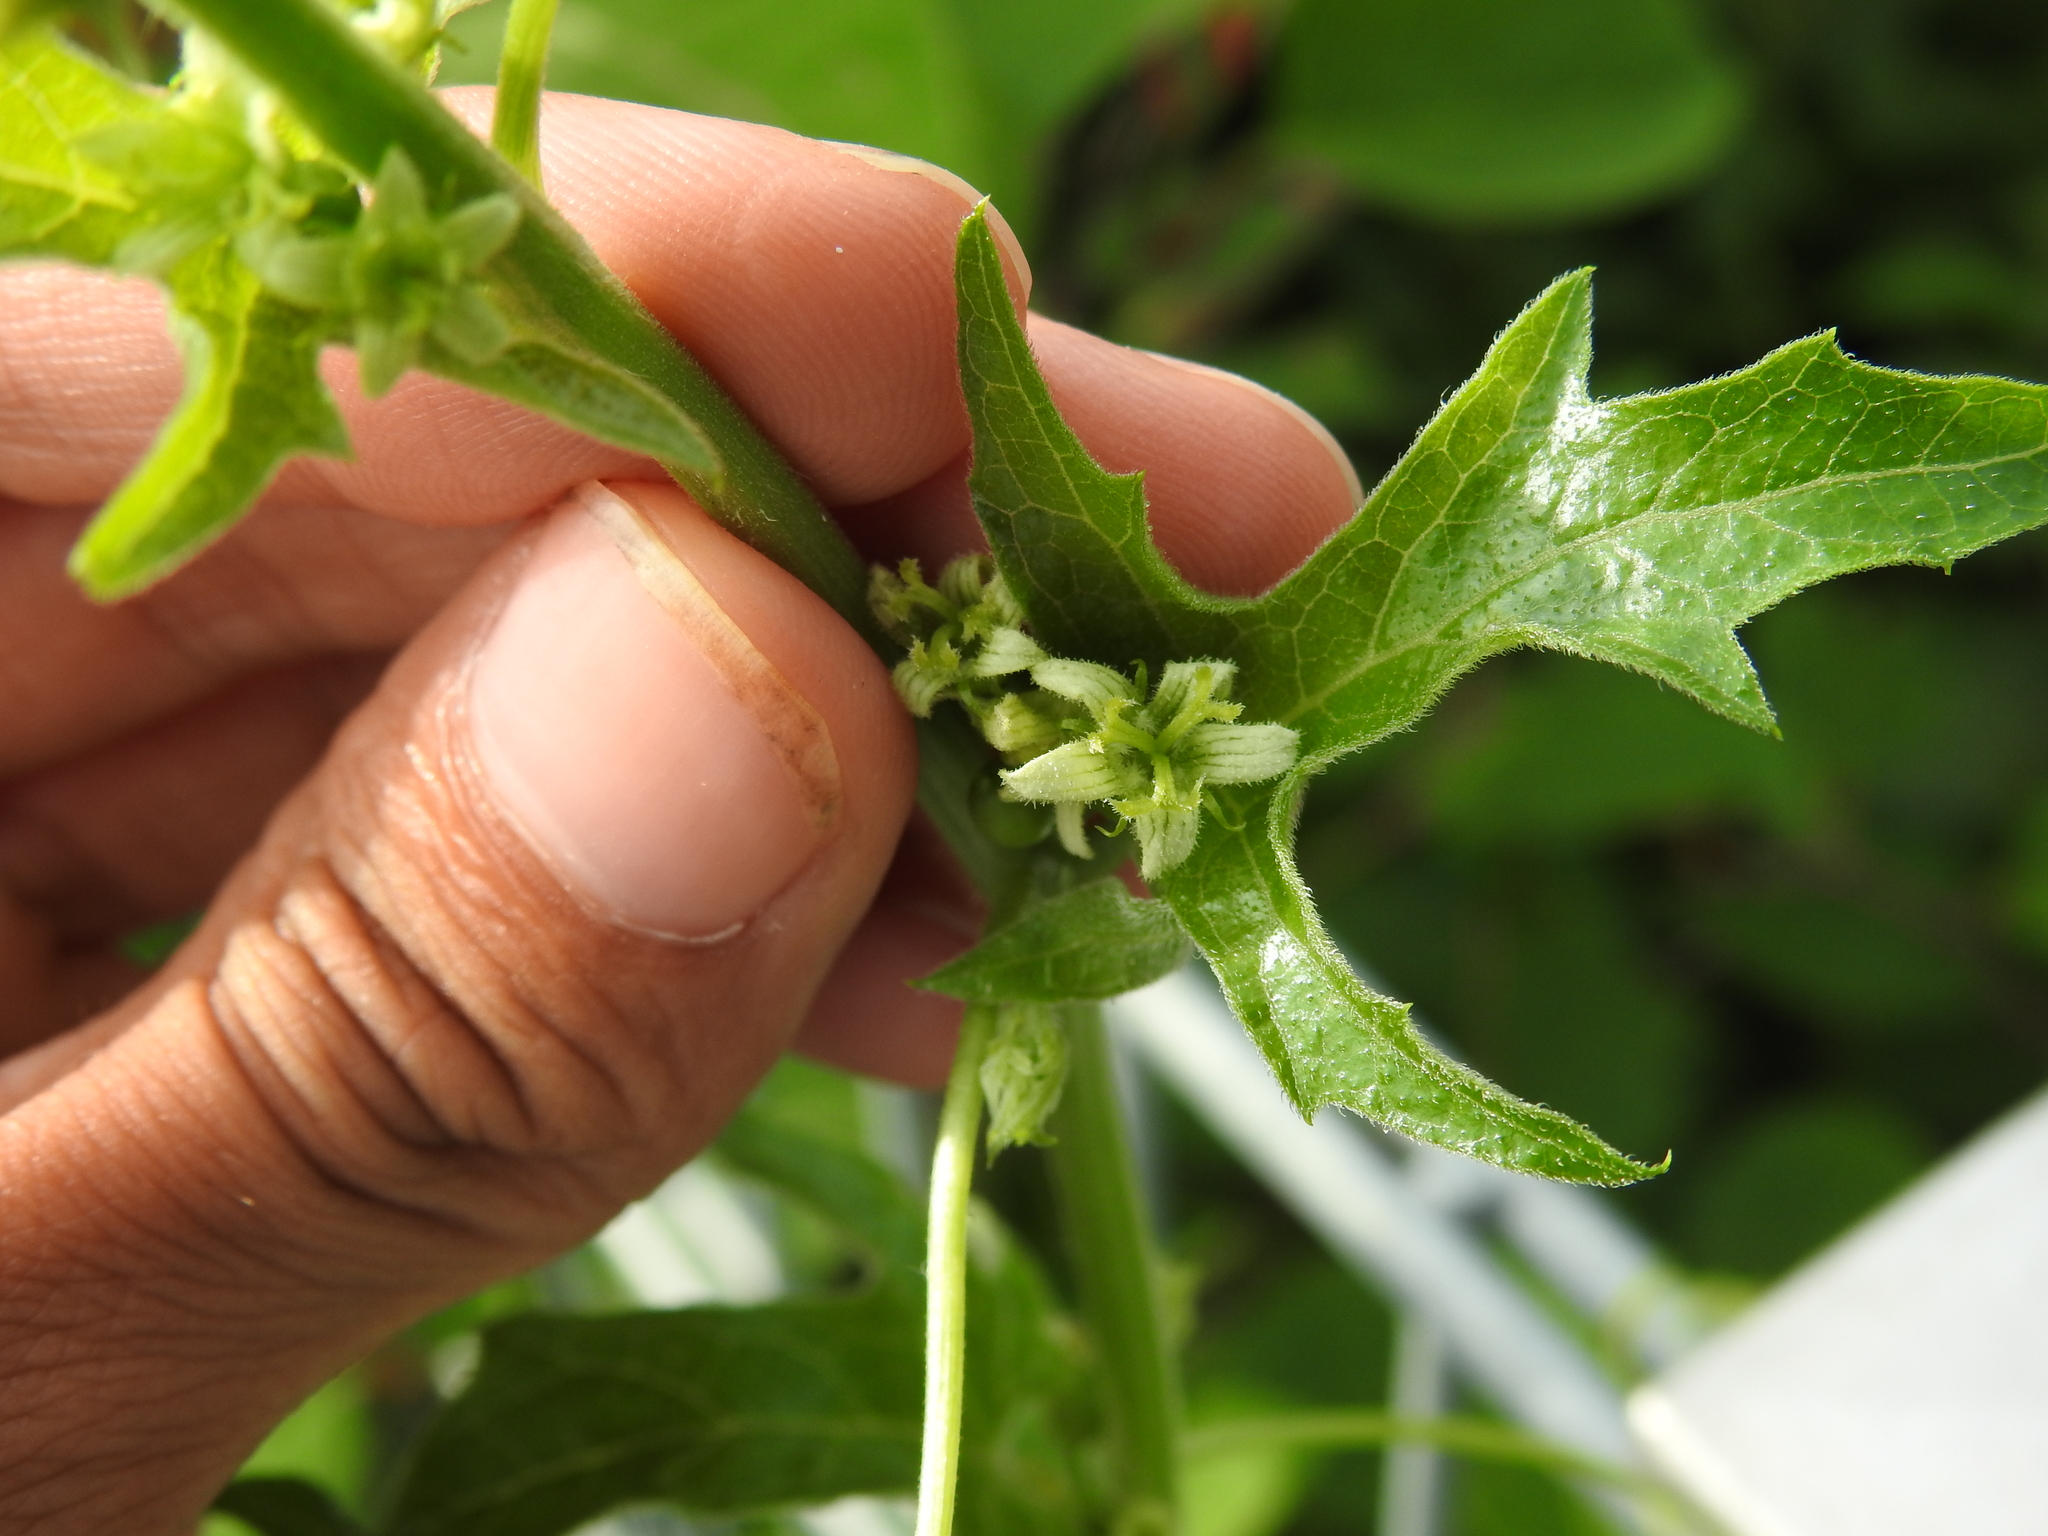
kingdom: Plantae
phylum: Tracheophyta
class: Magnoliopsida
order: Cucurbitales
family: Cucurbitaceae
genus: Bryonia
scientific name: Bryonia alba
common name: White bryony
